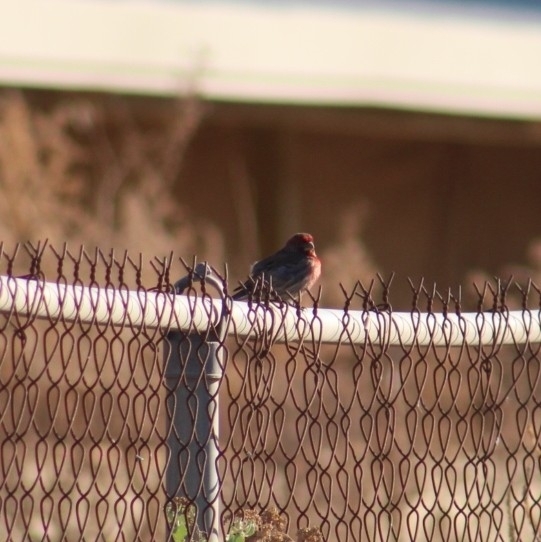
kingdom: Animalia
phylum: Chordata
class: Aves
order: Passeriformes
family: Fringillidae
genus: Haemorhous
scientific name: Haemorhous mexicanus
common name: House finch
